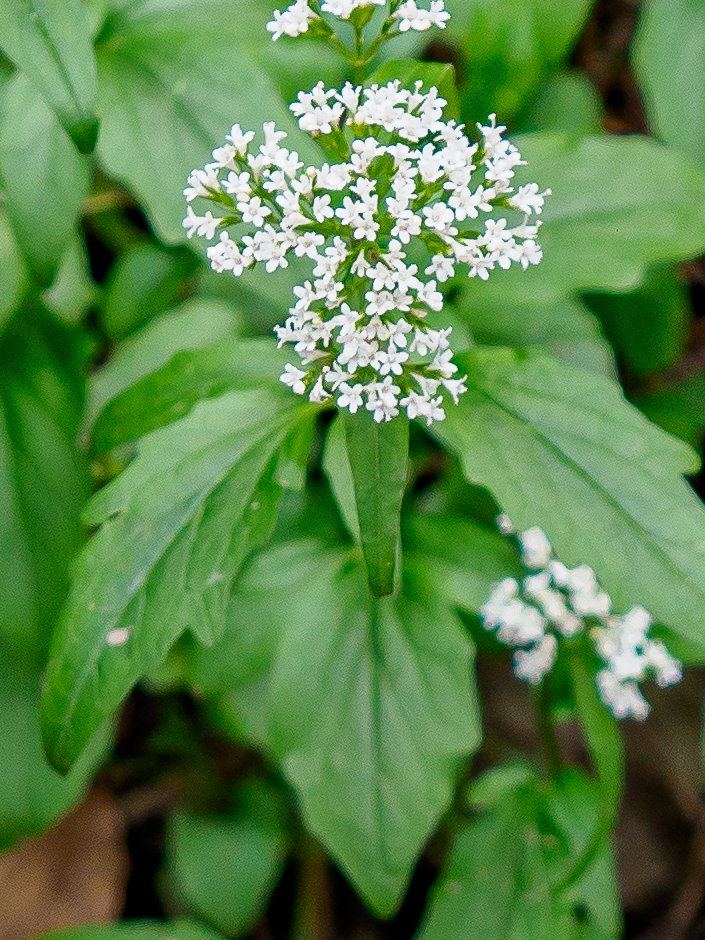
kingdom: Plantae
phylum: Tracheophyta
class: Magnoliopsida
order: Dipsacales
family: Caprifoliaceae
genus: Valeriana
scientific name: Valeriana tripteris
